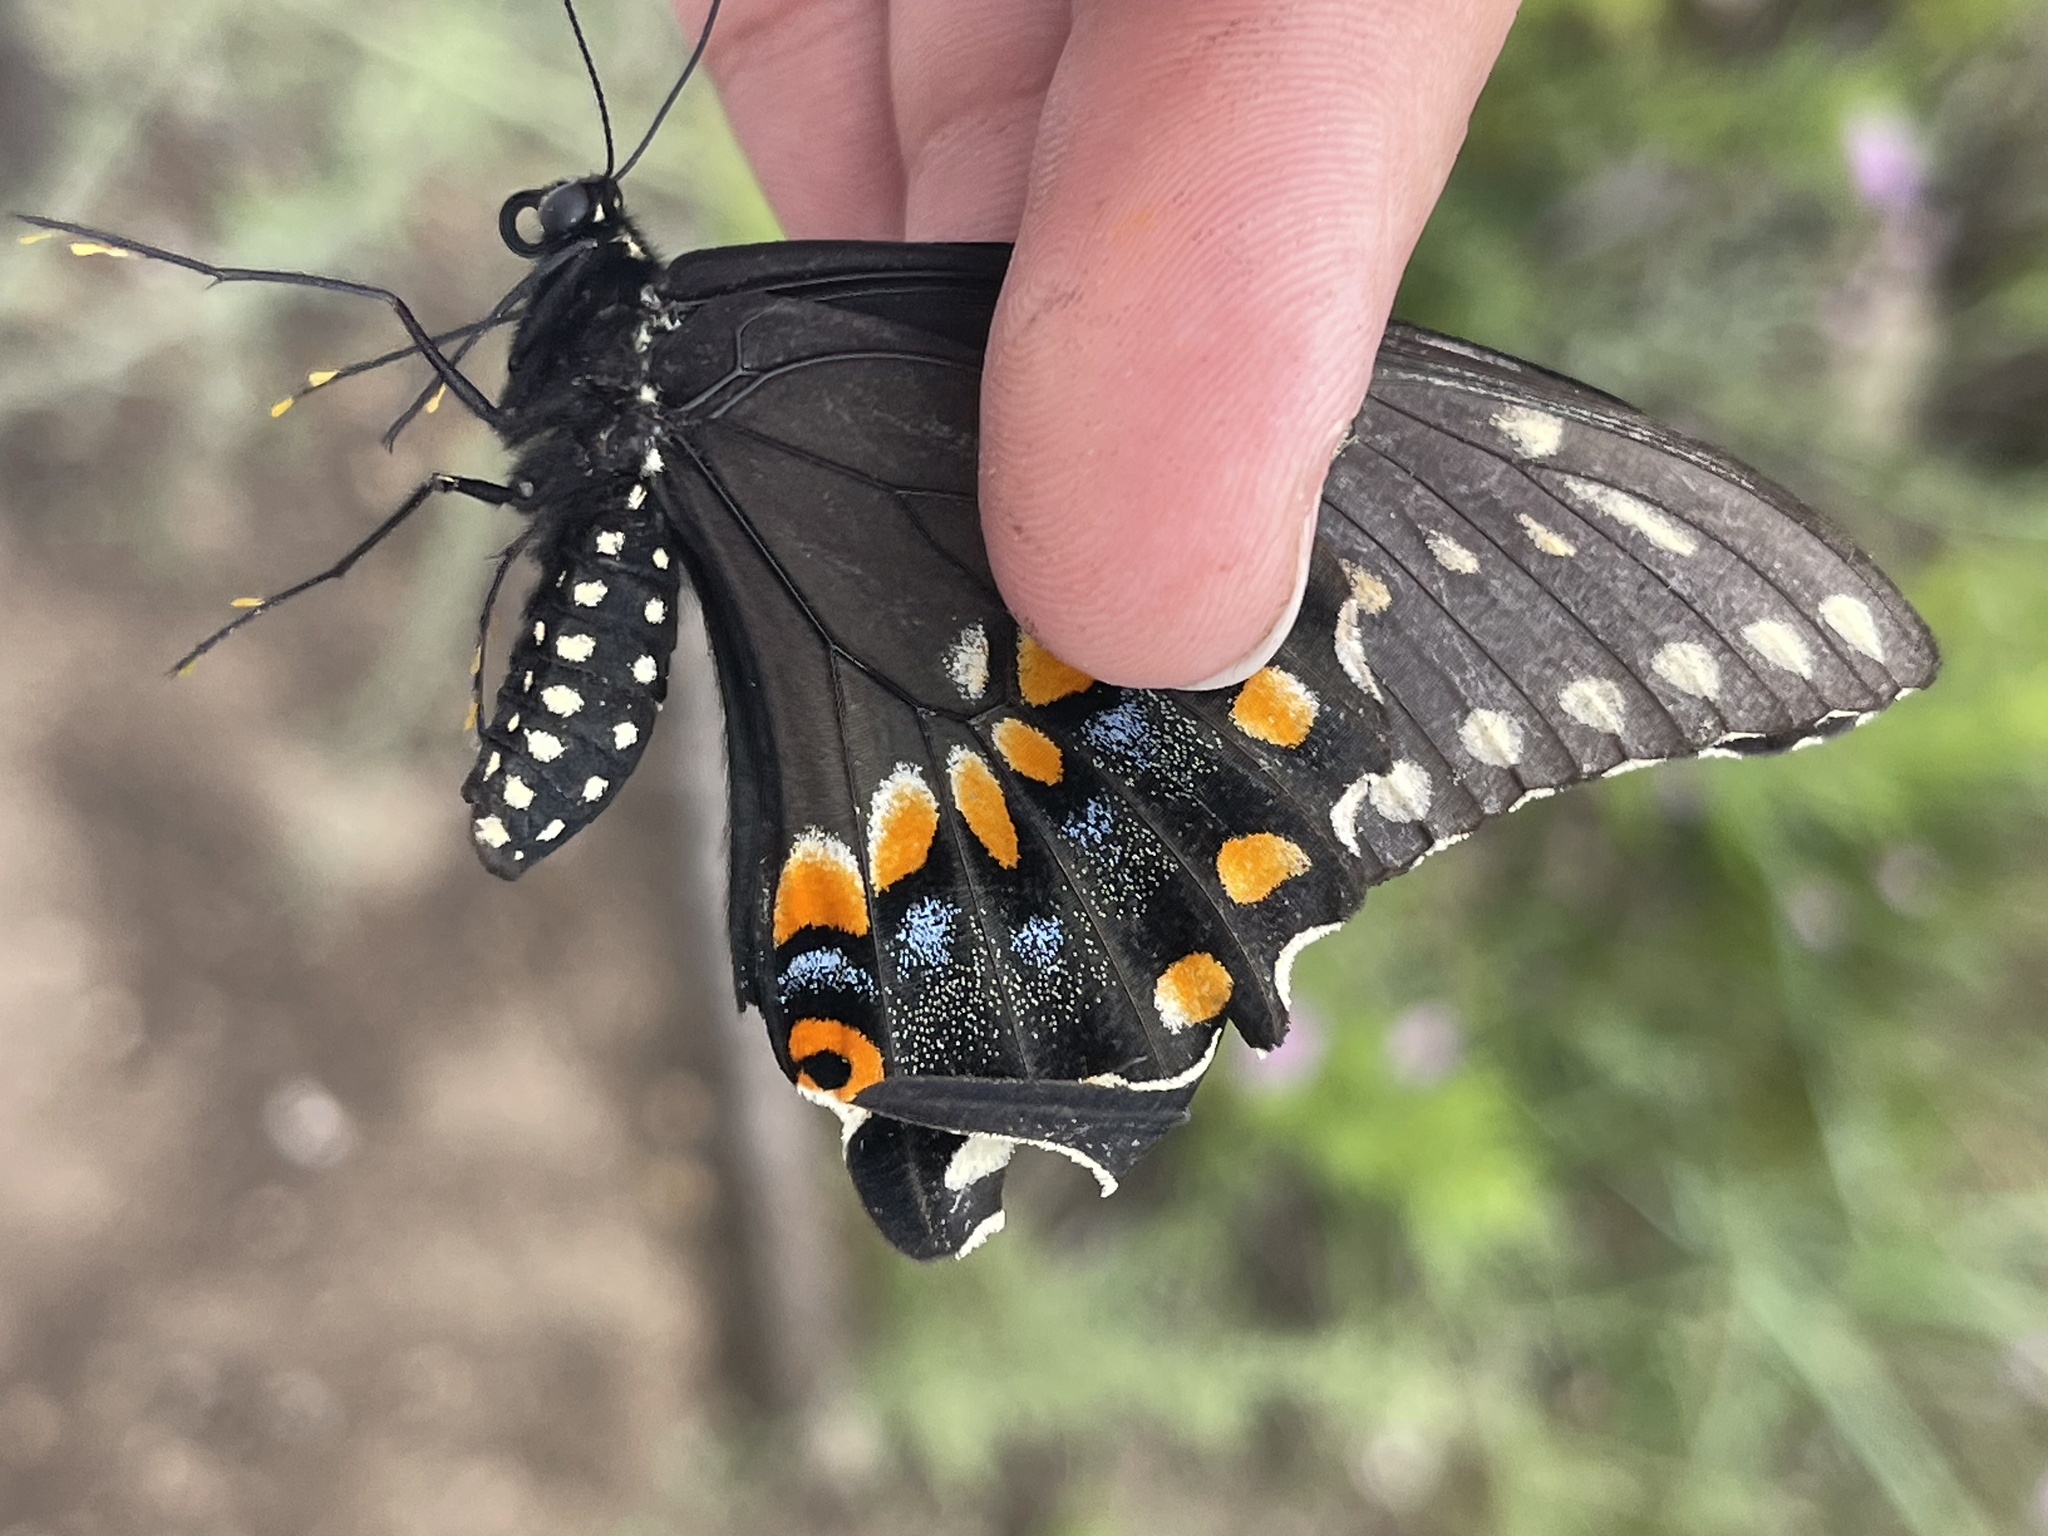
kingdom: Animalia
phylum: Arthropoda
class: Insecta
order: Lepidoptera
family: Papilionidae
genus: Papilio
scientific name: Papilio polyxenes
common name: Black swallowtail
